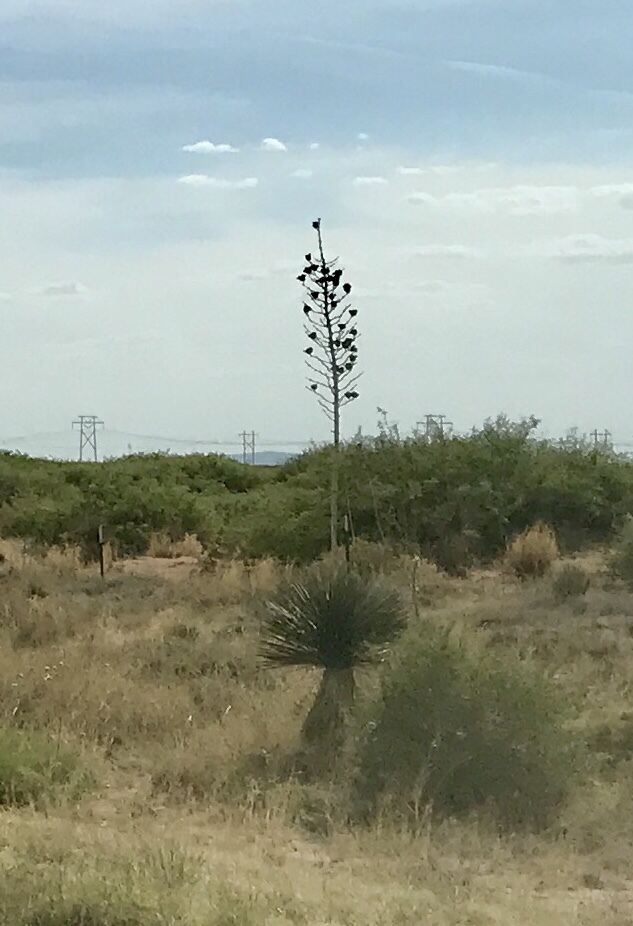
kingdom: Plantae
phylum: Tracheophyta
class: Liliopsida
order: Asparagales
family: Asparagaceae
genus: Yucca
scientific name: Yucca elata
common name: Palmella
